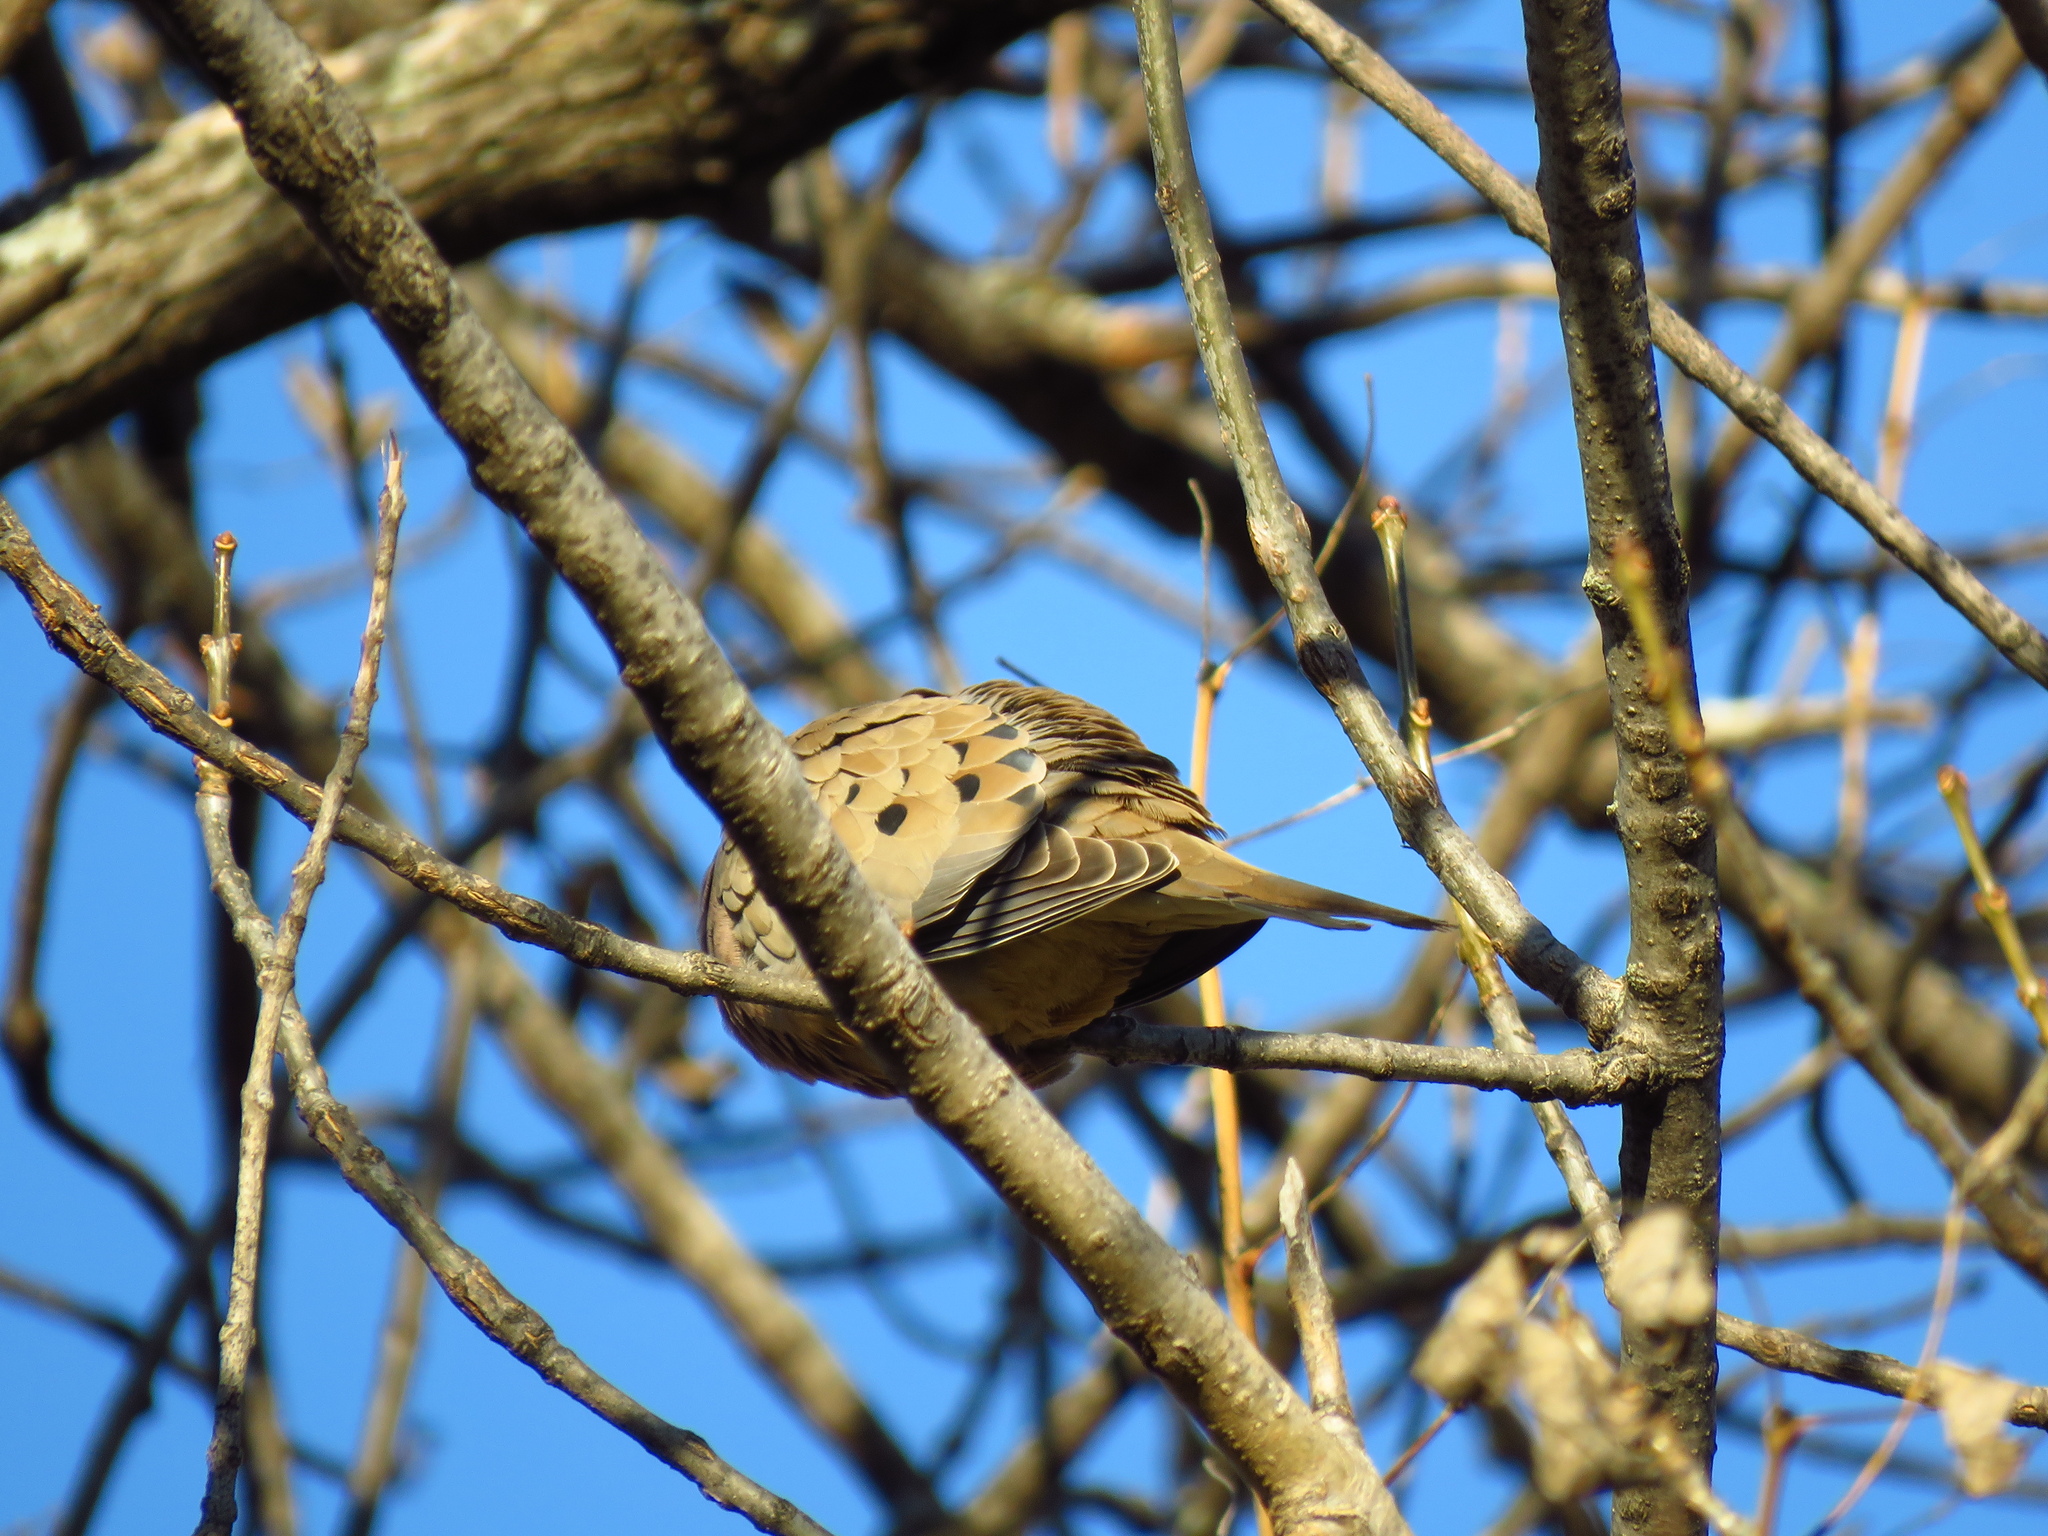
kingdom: Animalia
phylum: Chordata
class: Aves
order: Columbiformes
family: Columbidae
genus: Zenaida
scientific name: Zenaida macroura
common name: Mourning dove
